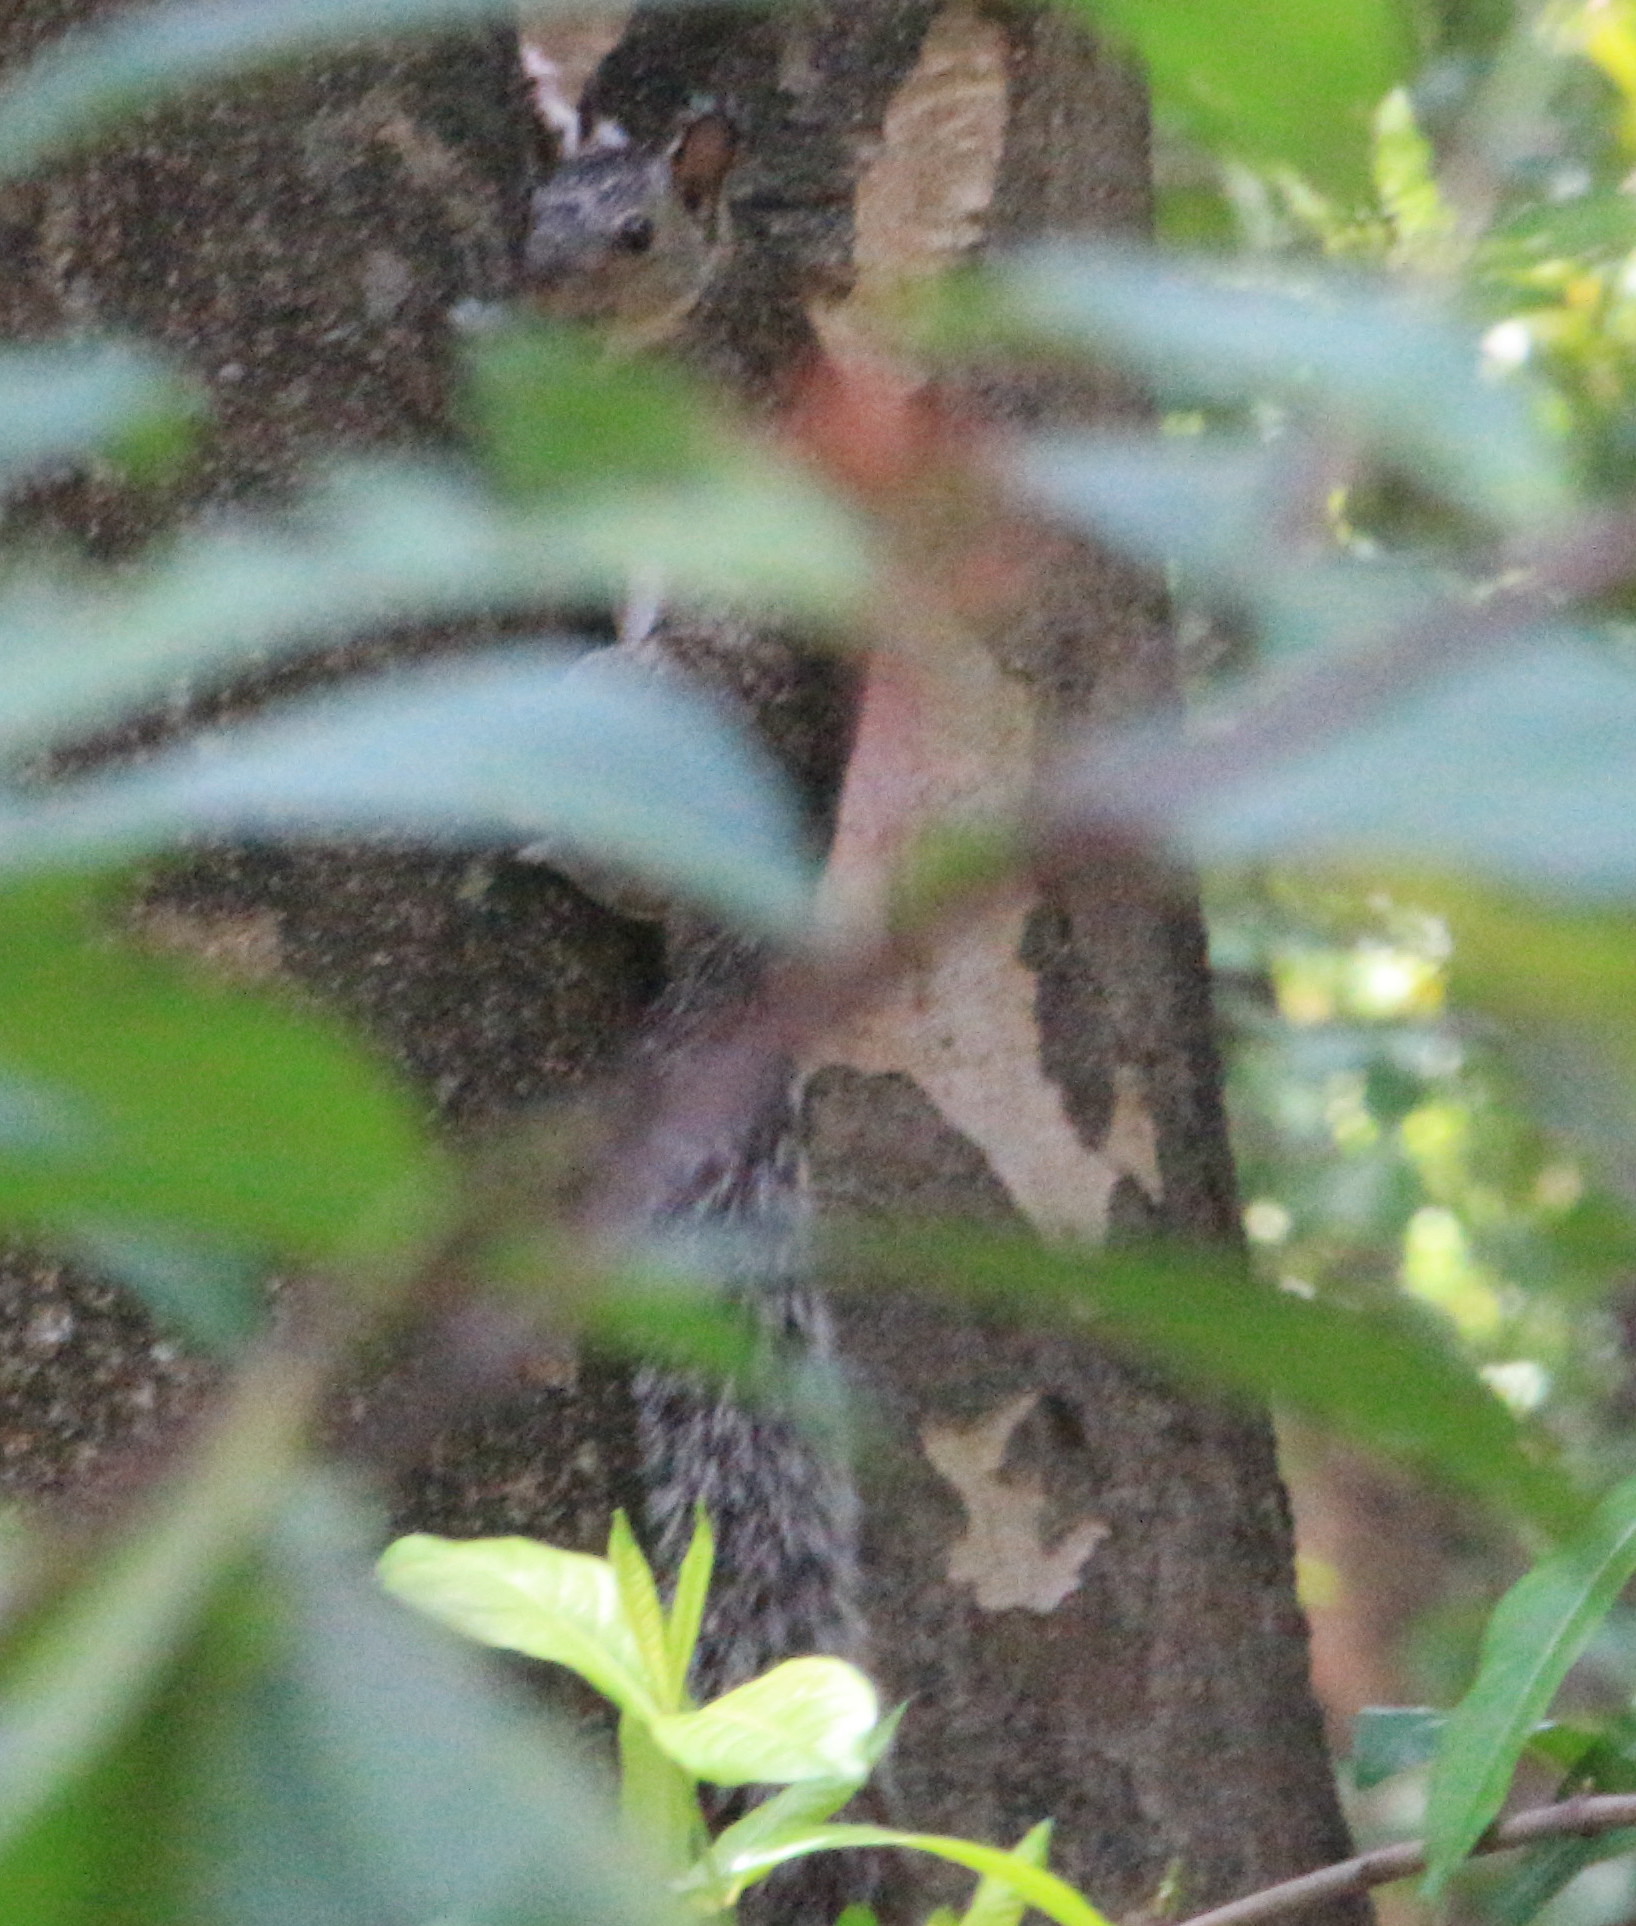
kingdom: Animalia
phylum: Chordata
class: Mammalia
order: Rodentia
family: Sciuridae
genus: Sciurus
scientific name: Sciurus variegatoides
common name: Variegated squirrel
